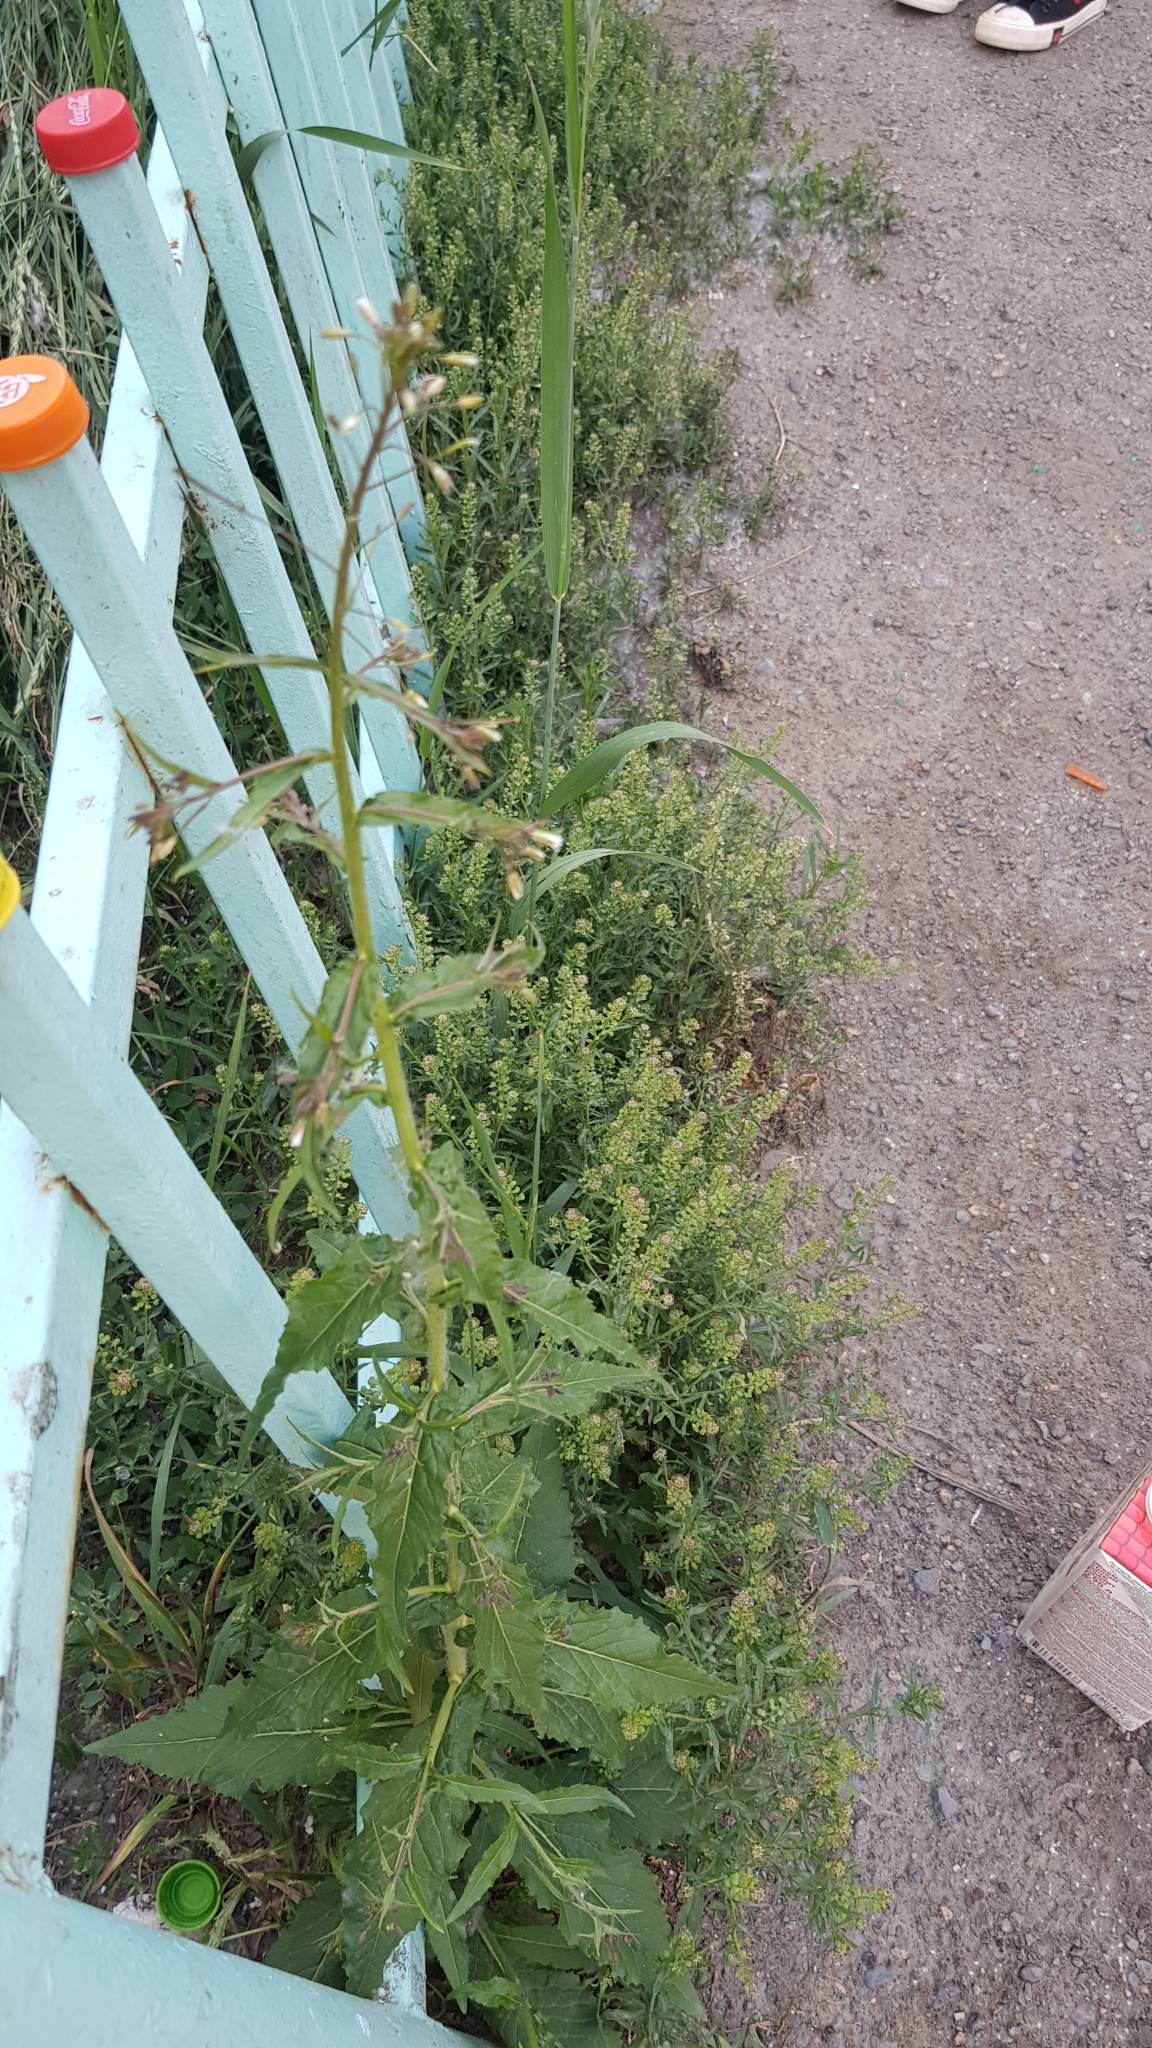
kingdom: Plantae
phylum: Tracheophyta
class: Magnoliopsida
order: Brassicales
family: Brassicaceae
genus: Lepidium
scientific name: Lepidium ruderale
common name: Narrow-leaved pepperwort
